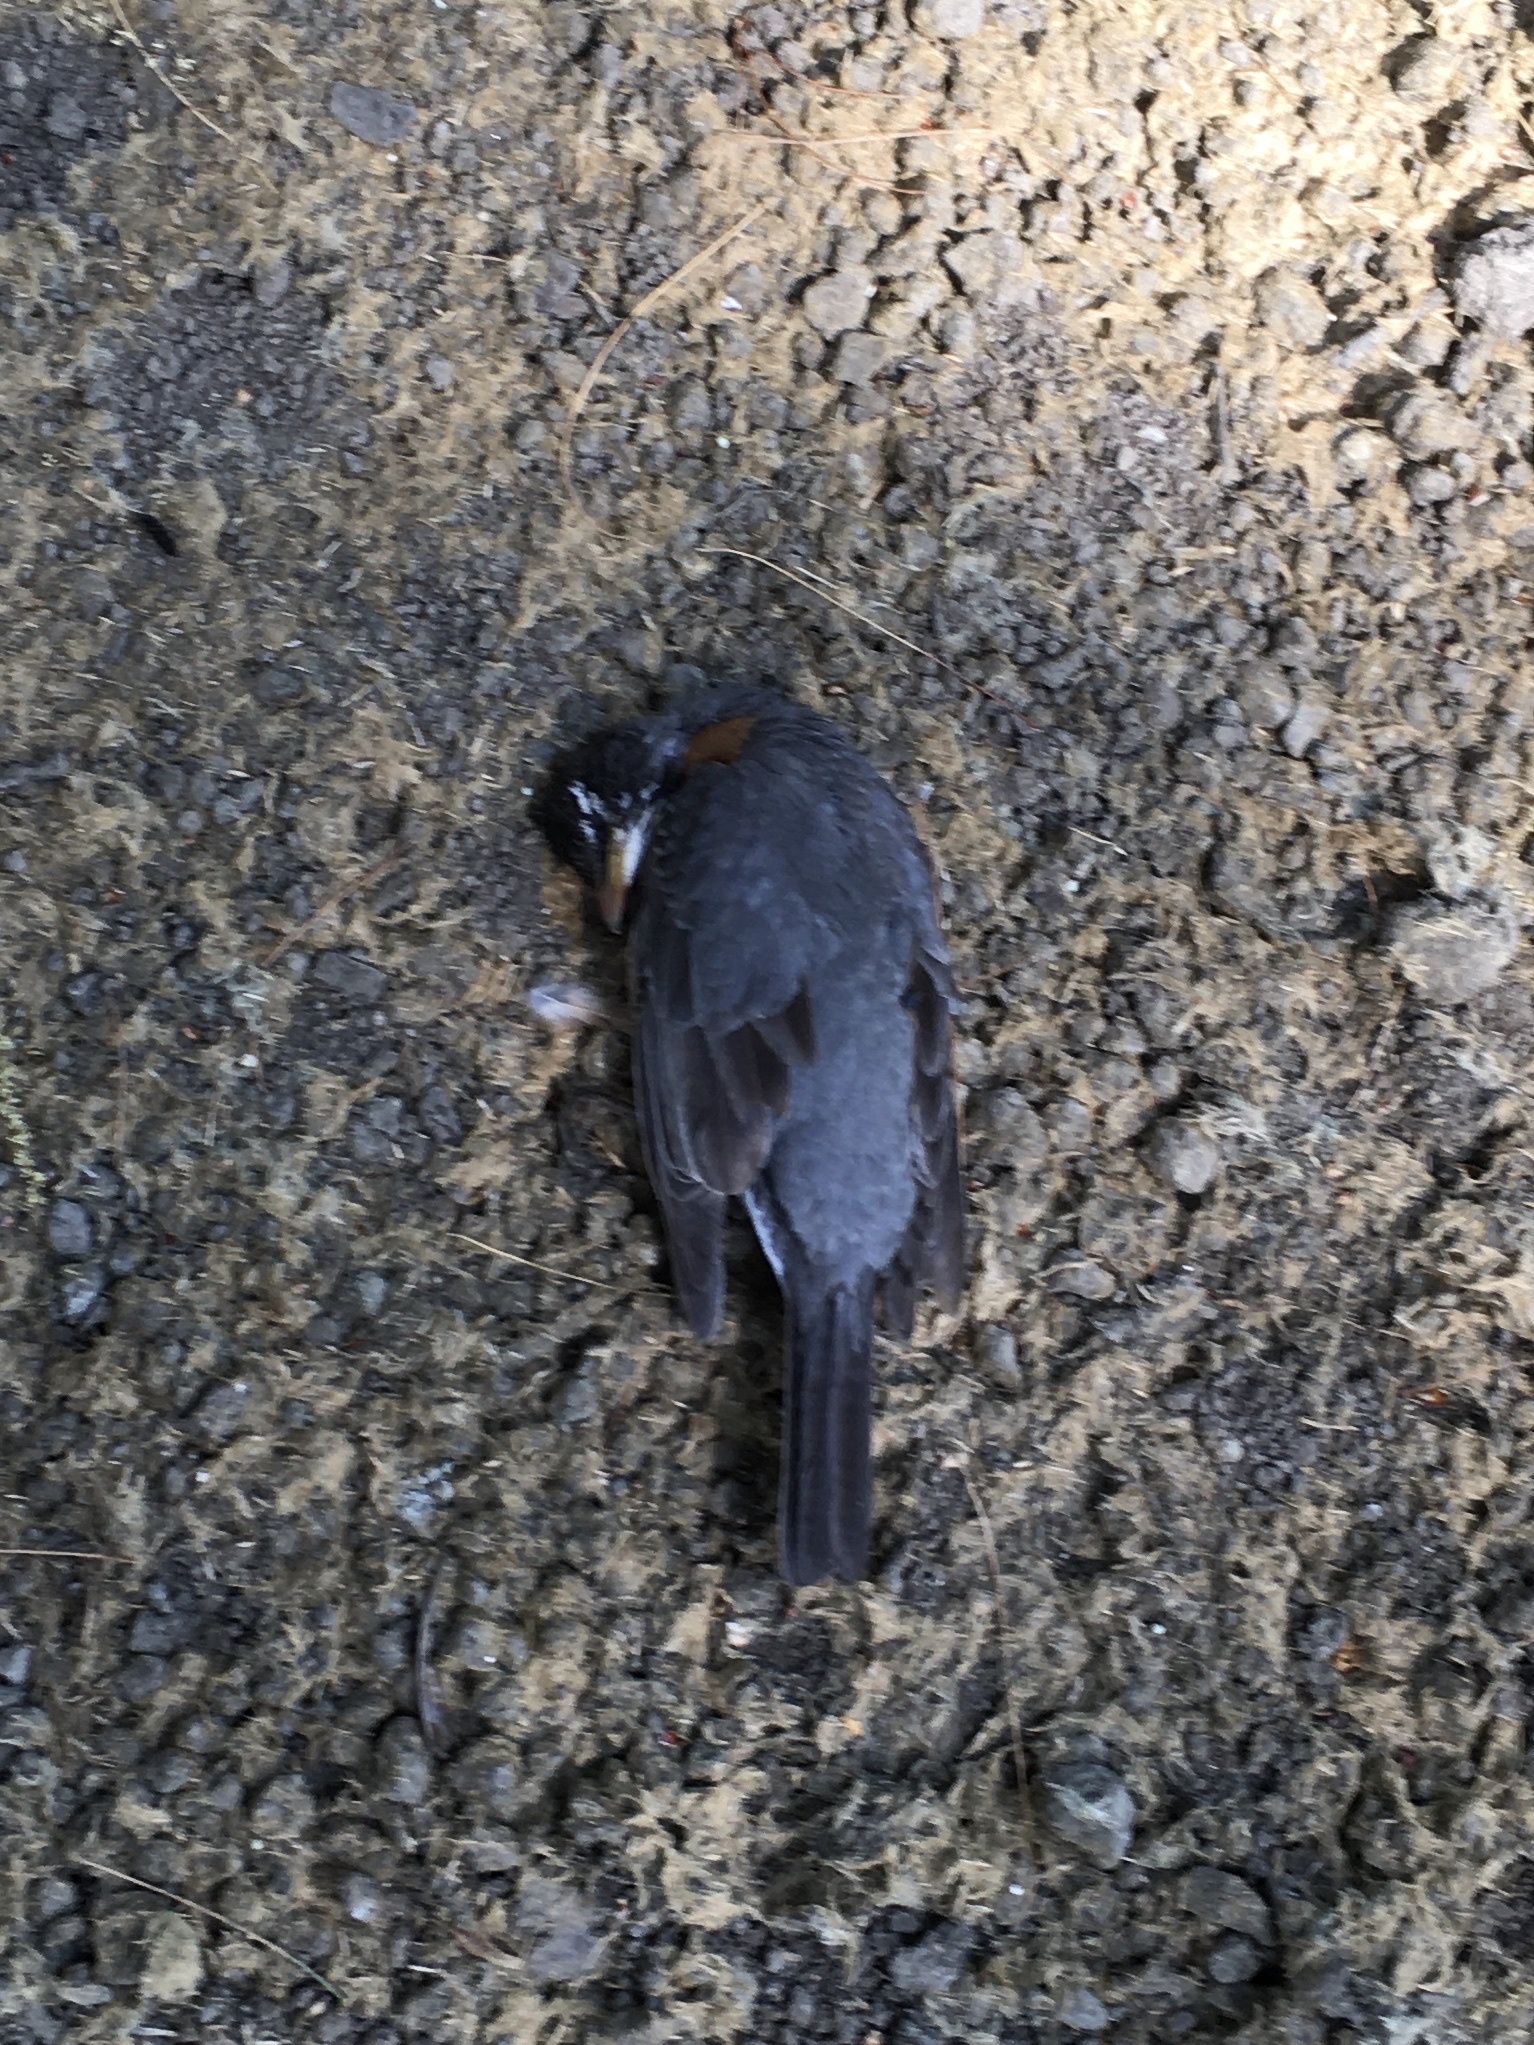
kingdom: Animalia
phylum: Chordata
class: Aves
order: Passeriformes
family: Turdidae
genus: Turdus
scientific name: Turdus migratorius
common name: American robin
